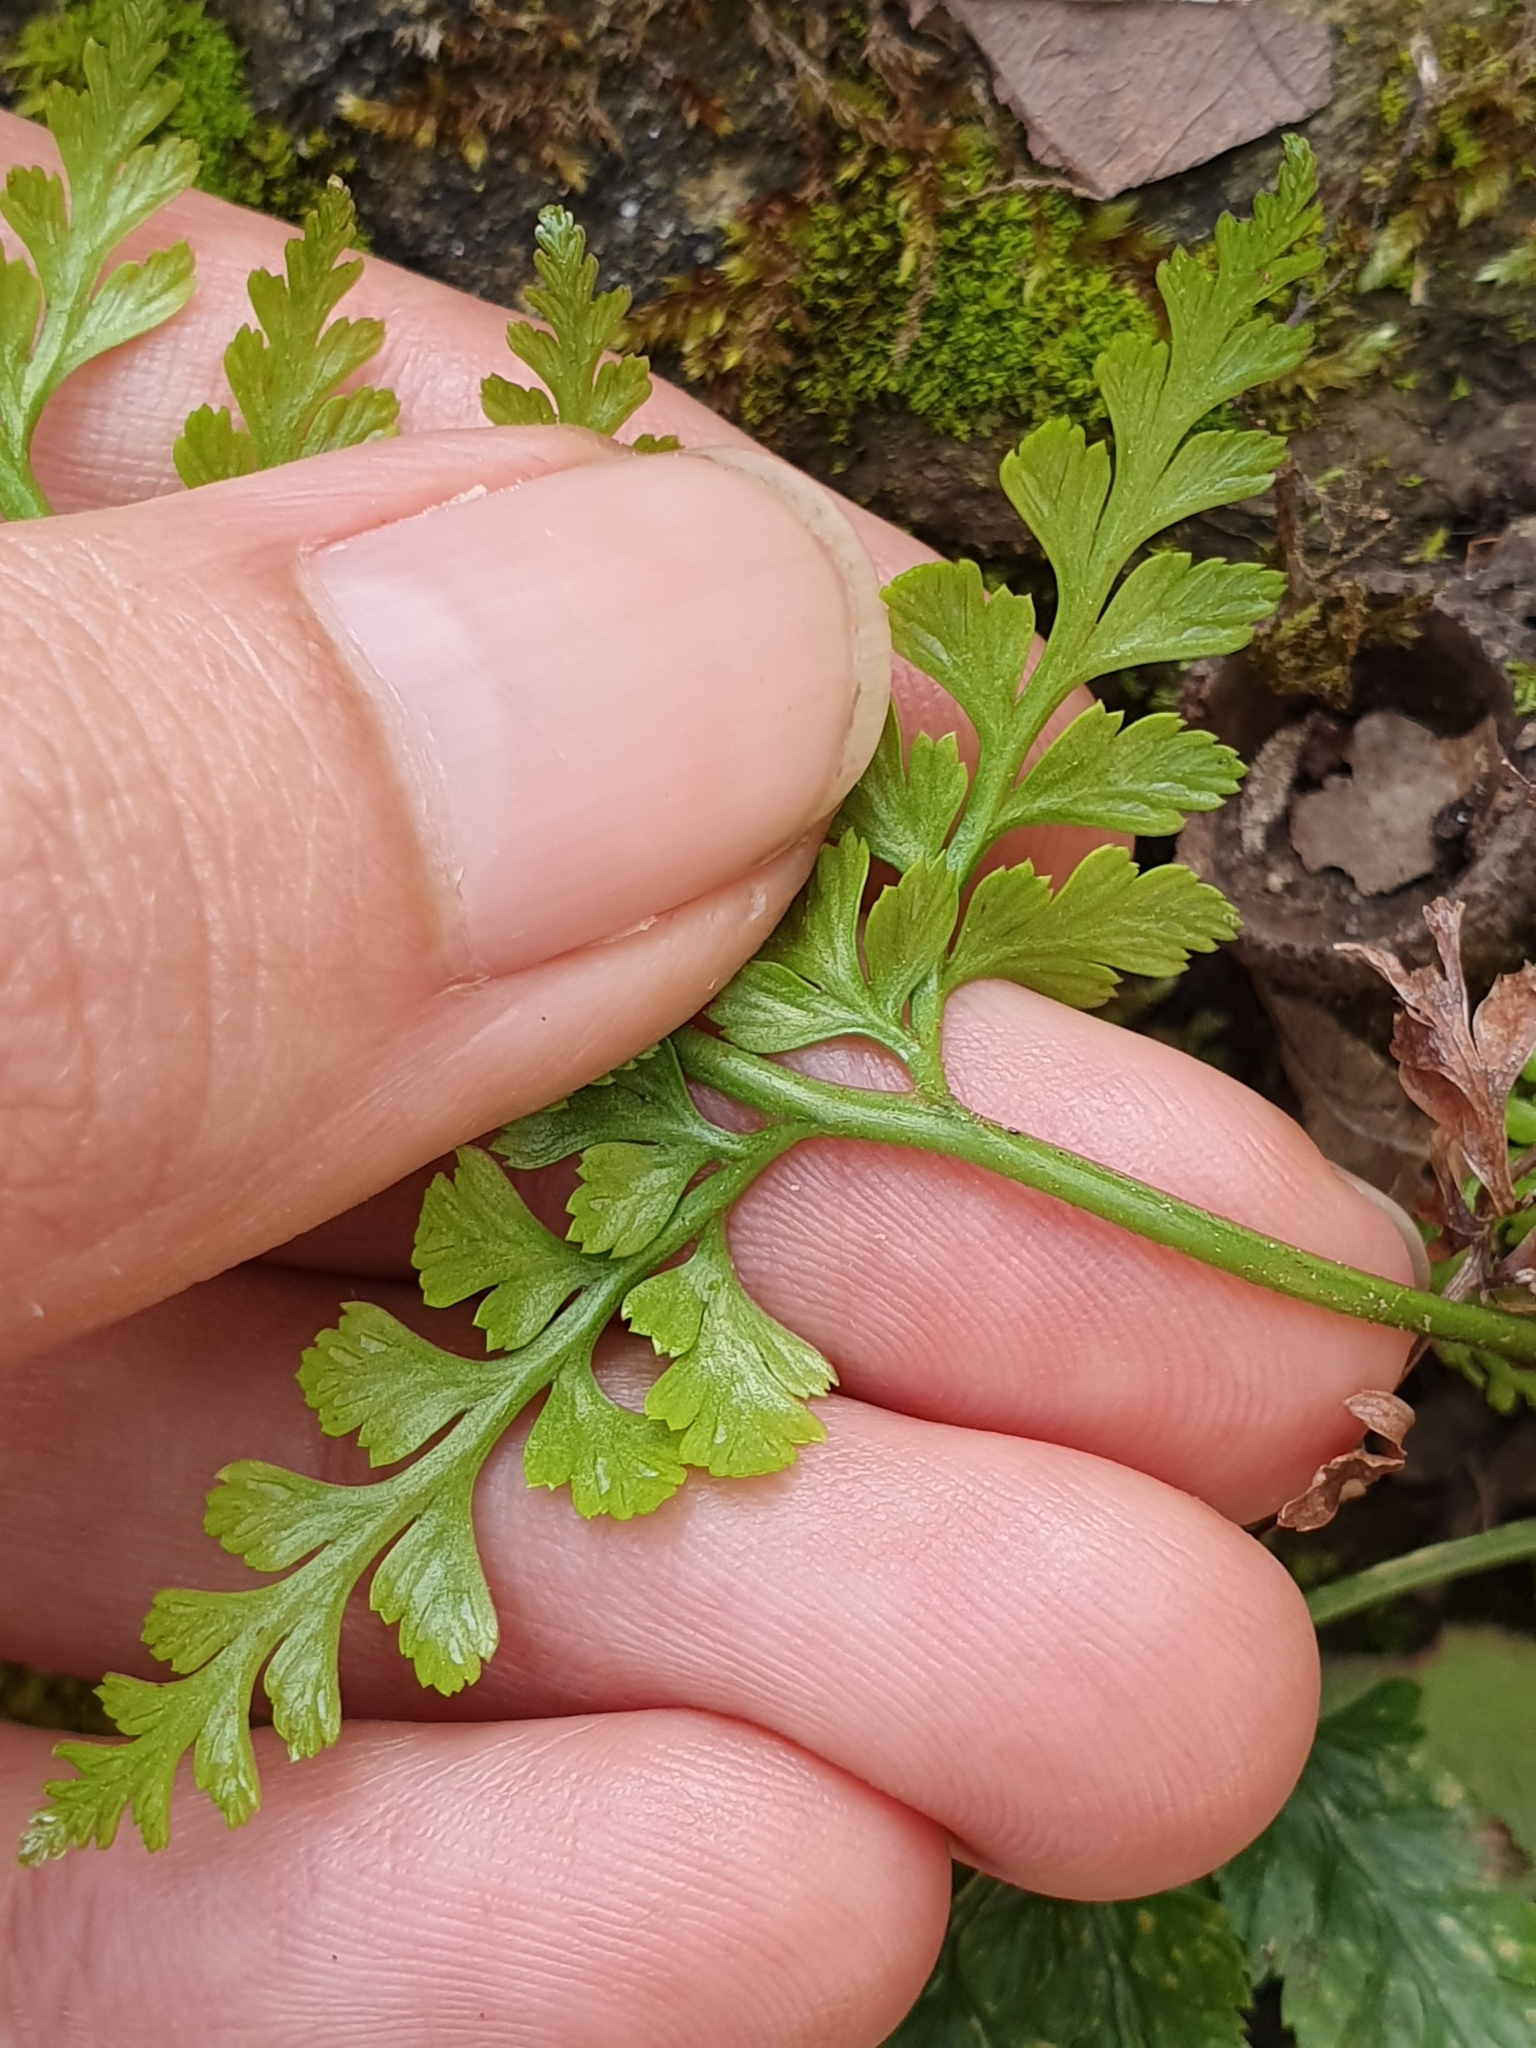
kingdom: Plantae
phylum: Tracheophyta
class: Polypodiopsida
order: Polypodiales
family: Aspleniaceae
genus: Asplenium
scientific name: Asplenium onopteris
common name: Irish spleenwort
